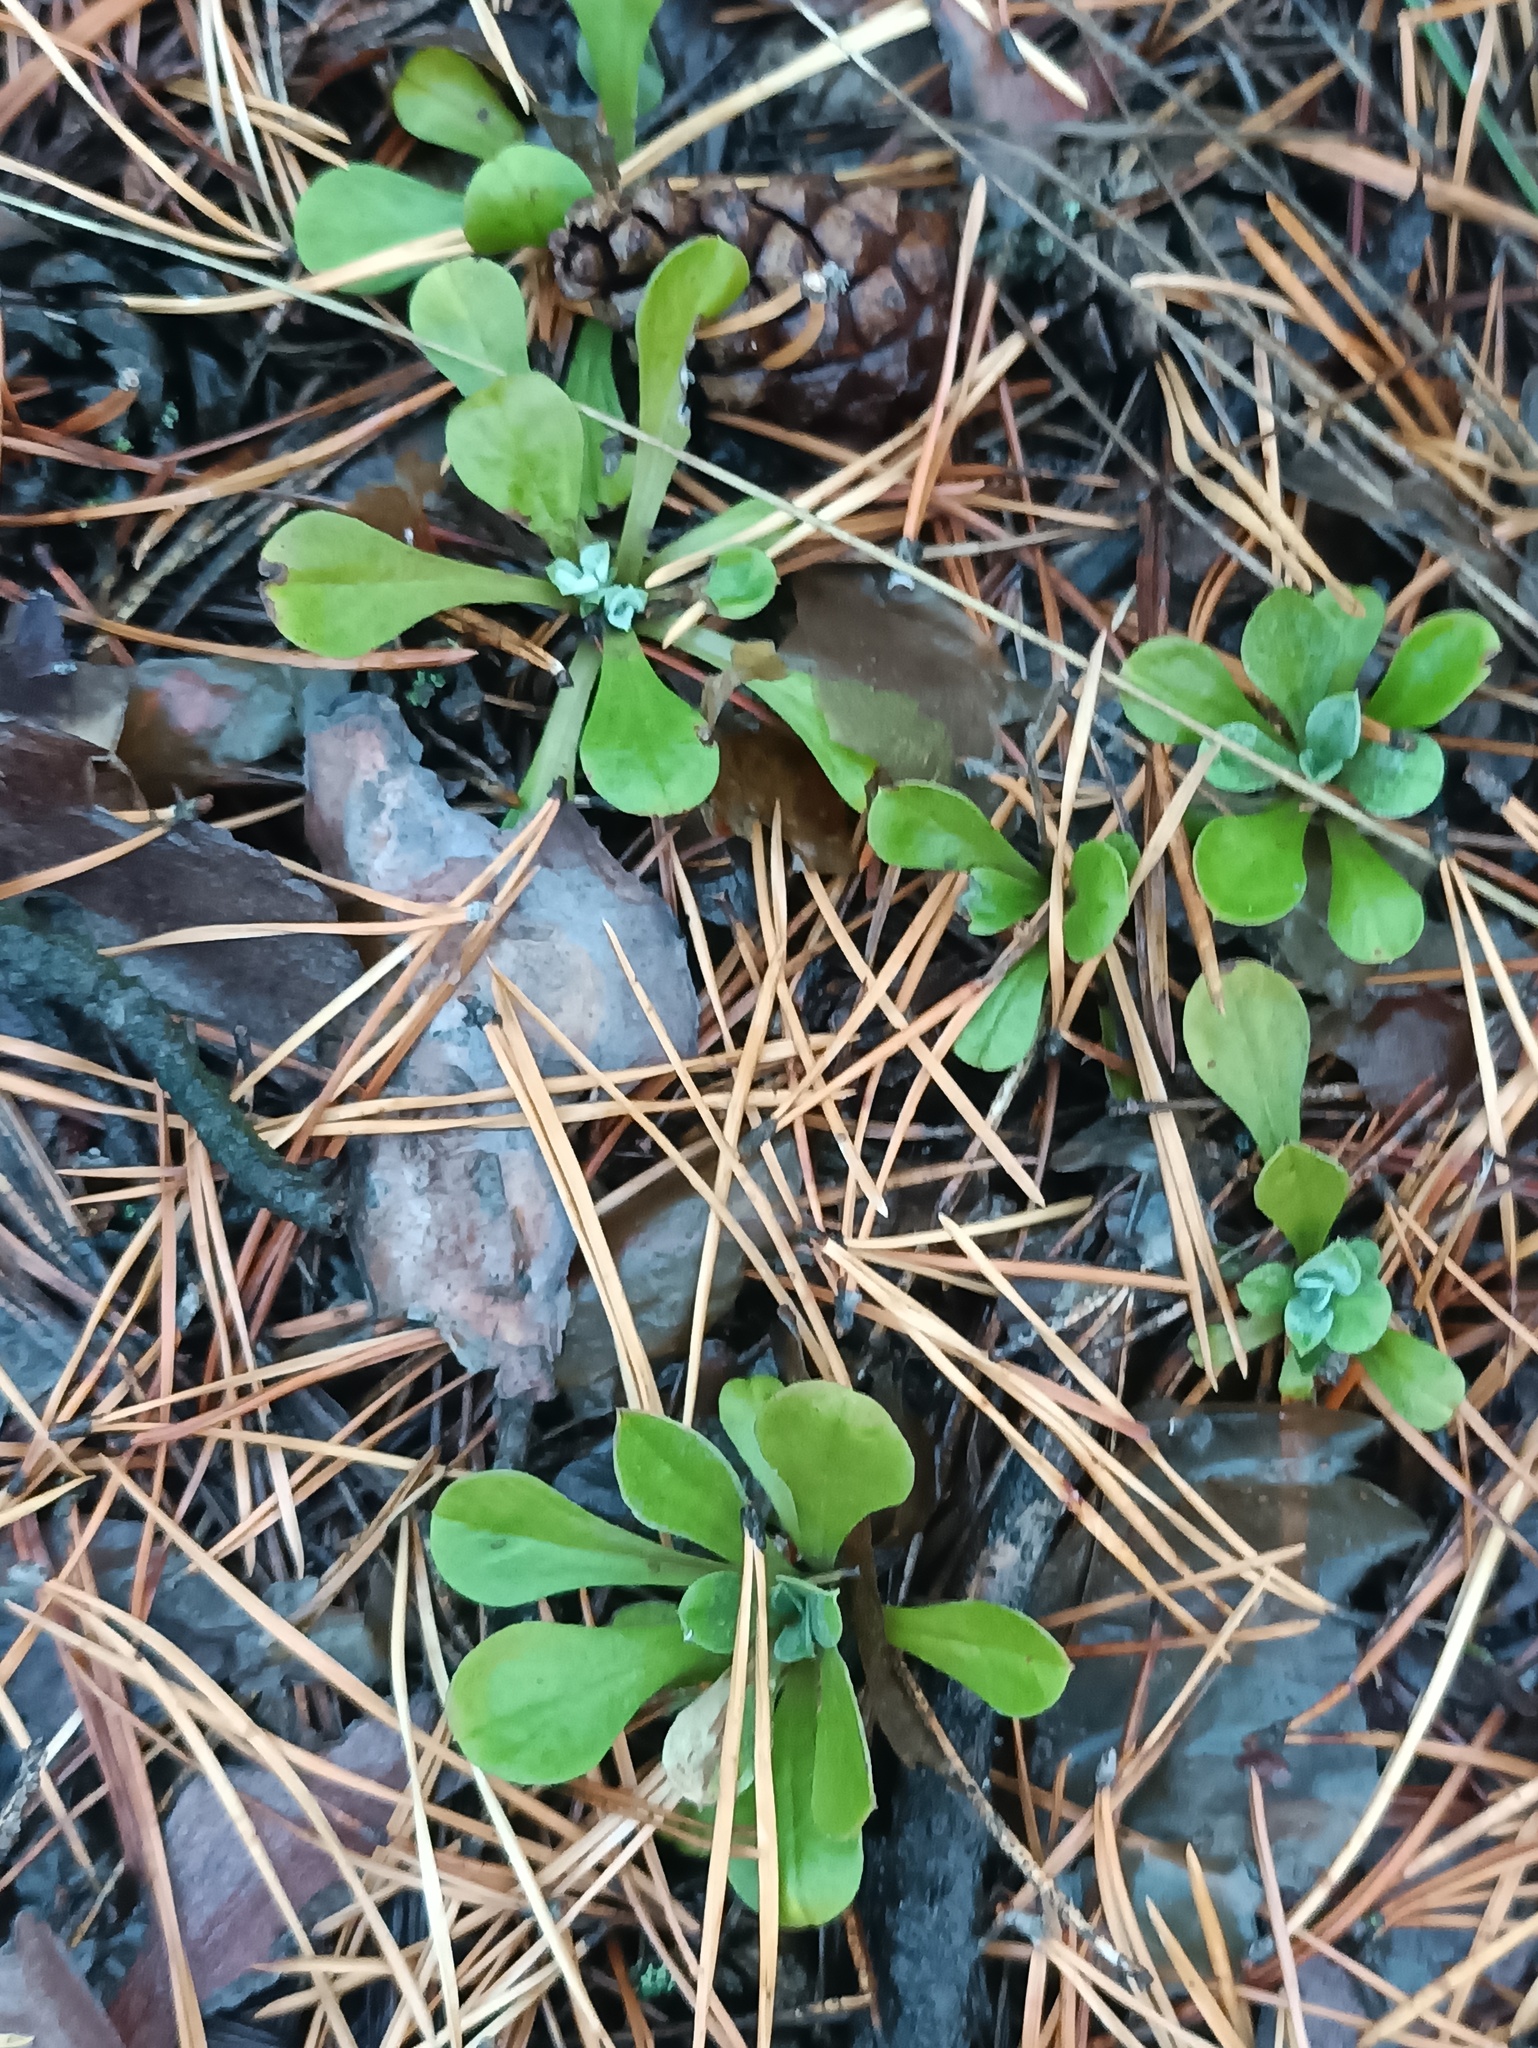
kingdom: Plantae
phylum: Tracheophyta
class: Magnoliopsida
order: Asterales
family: Asteraceae
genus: Antennaria
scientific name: Antennaria dioica
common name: Mountain everlasting
